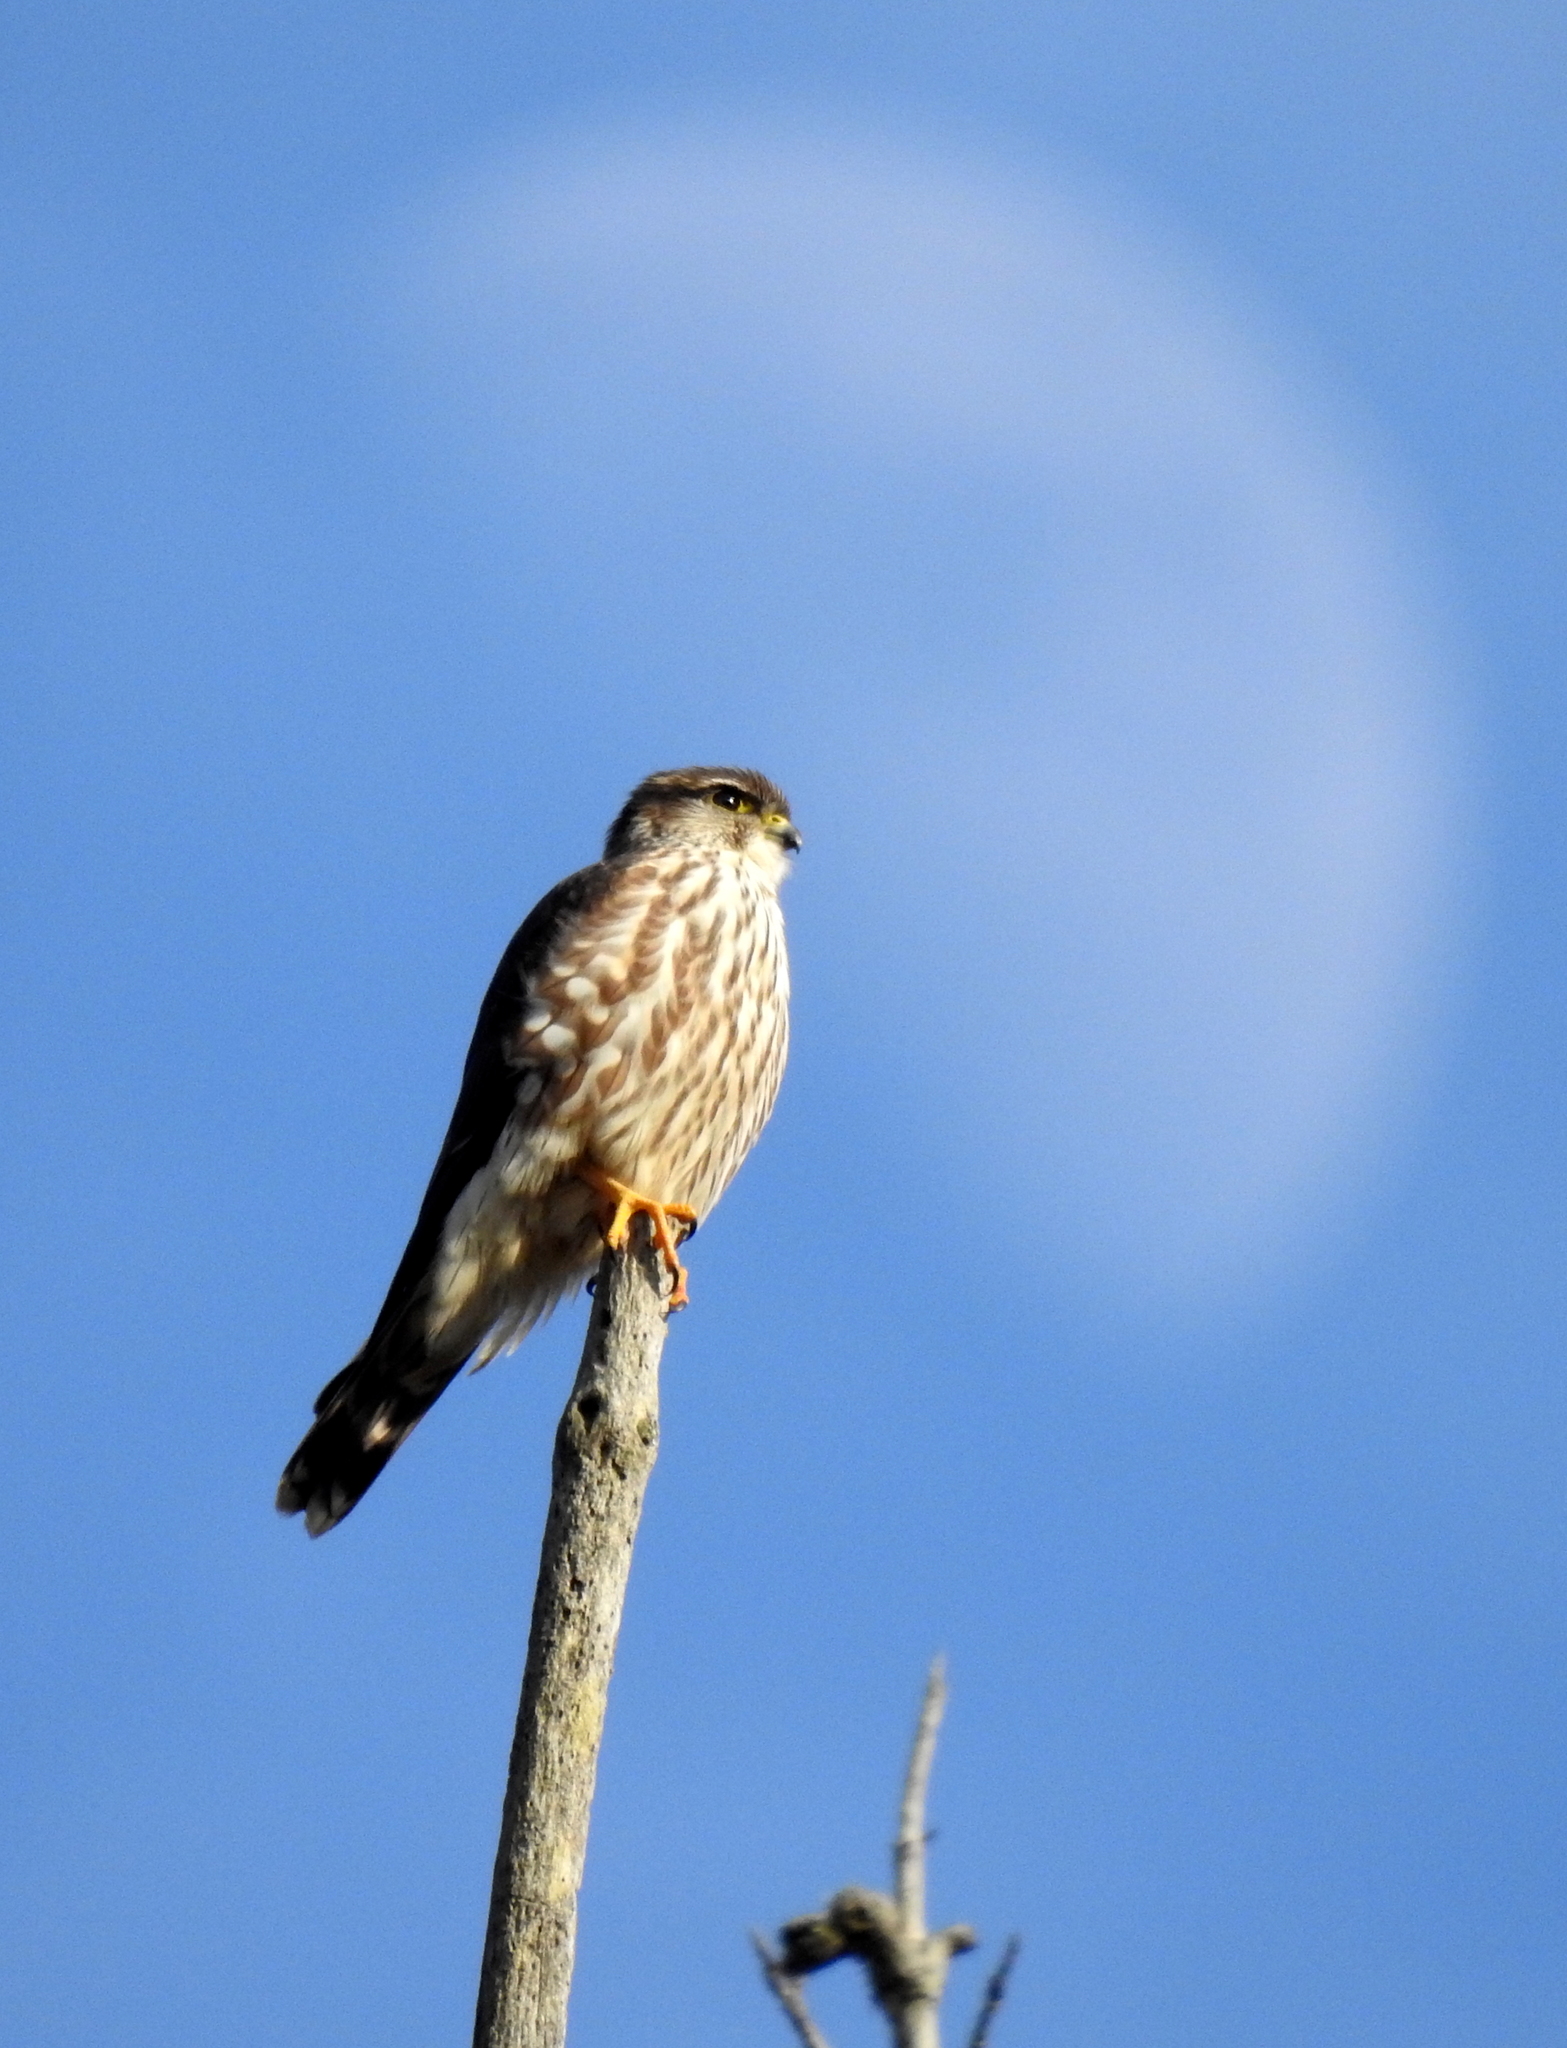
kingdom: Animalia
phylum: Chordata
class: Aves
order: Falconiformes
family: Falconidae
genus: Falco
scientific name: Falco columbarius
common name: Merlin
